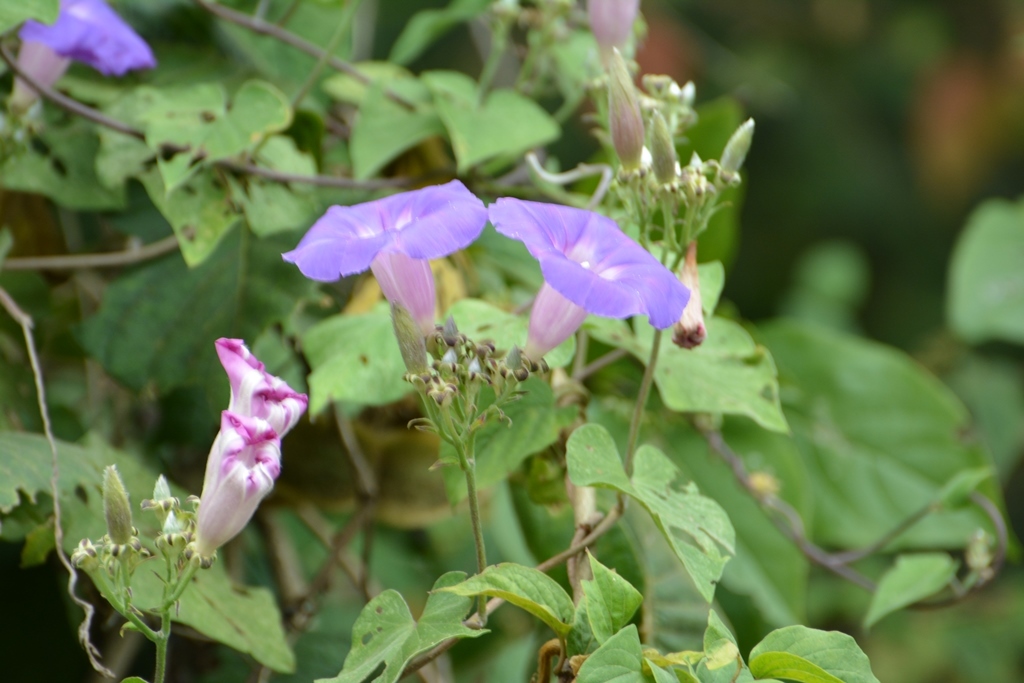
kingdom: Plantae
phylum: Tracheophyta
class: Magnoliopsida
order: Solanales
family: Convolvulaceae
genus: Ipomoea
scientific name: Ipomoea leucotricha
